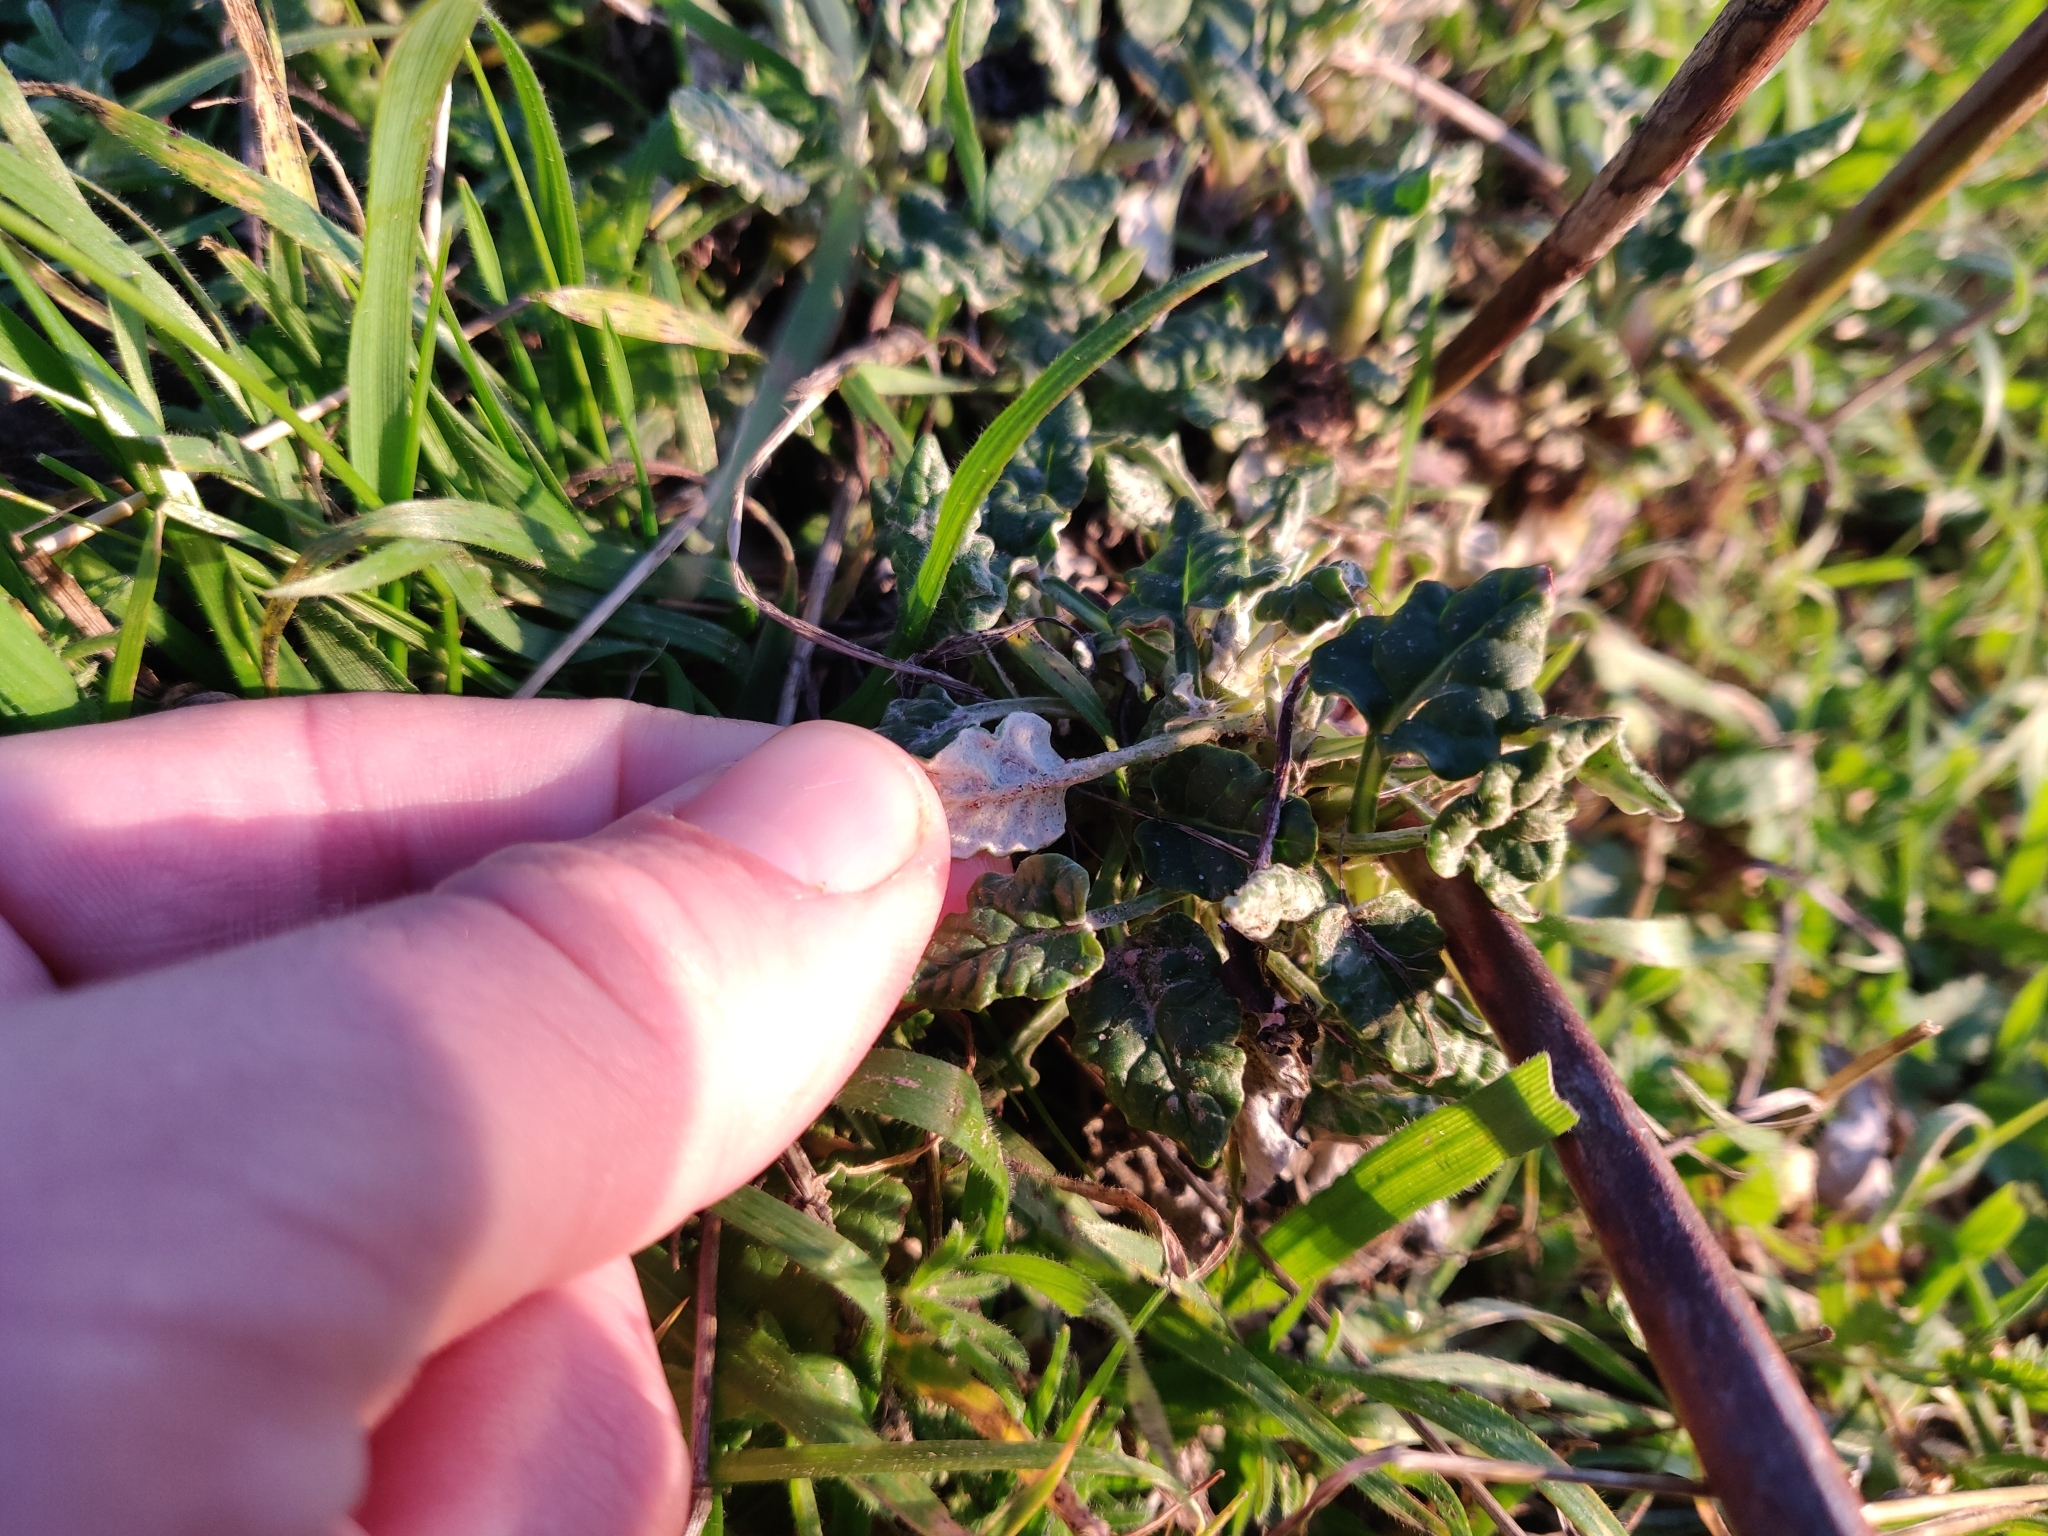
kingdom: Plantae
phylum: Tracheophyta
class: Magnoliopsida
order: Caryophyllales
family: Polygonaceae
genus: Eriogonum
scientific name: Eriogonum nudum
